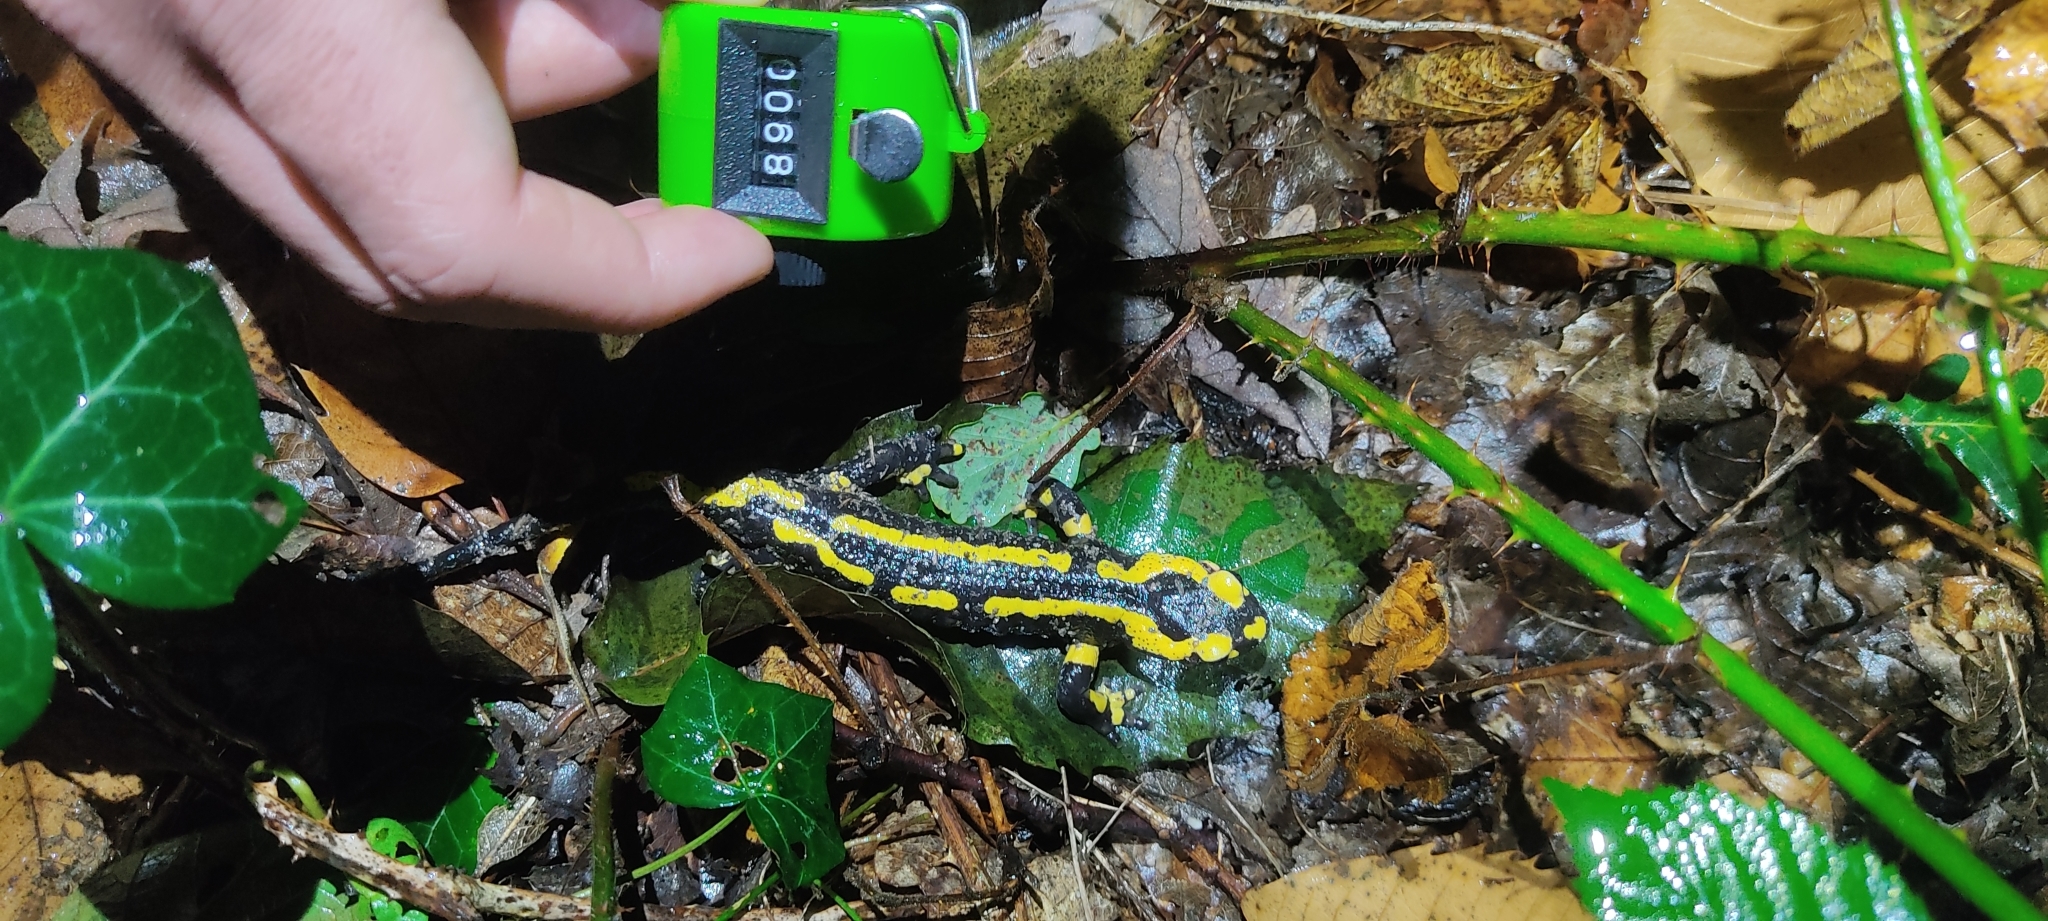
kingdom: Animalia
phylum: Chordata
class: Amphibia
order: Caudata
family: Salamandridae
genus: Salamandra
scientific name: Salamandra salamandra
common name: Fire salamander
